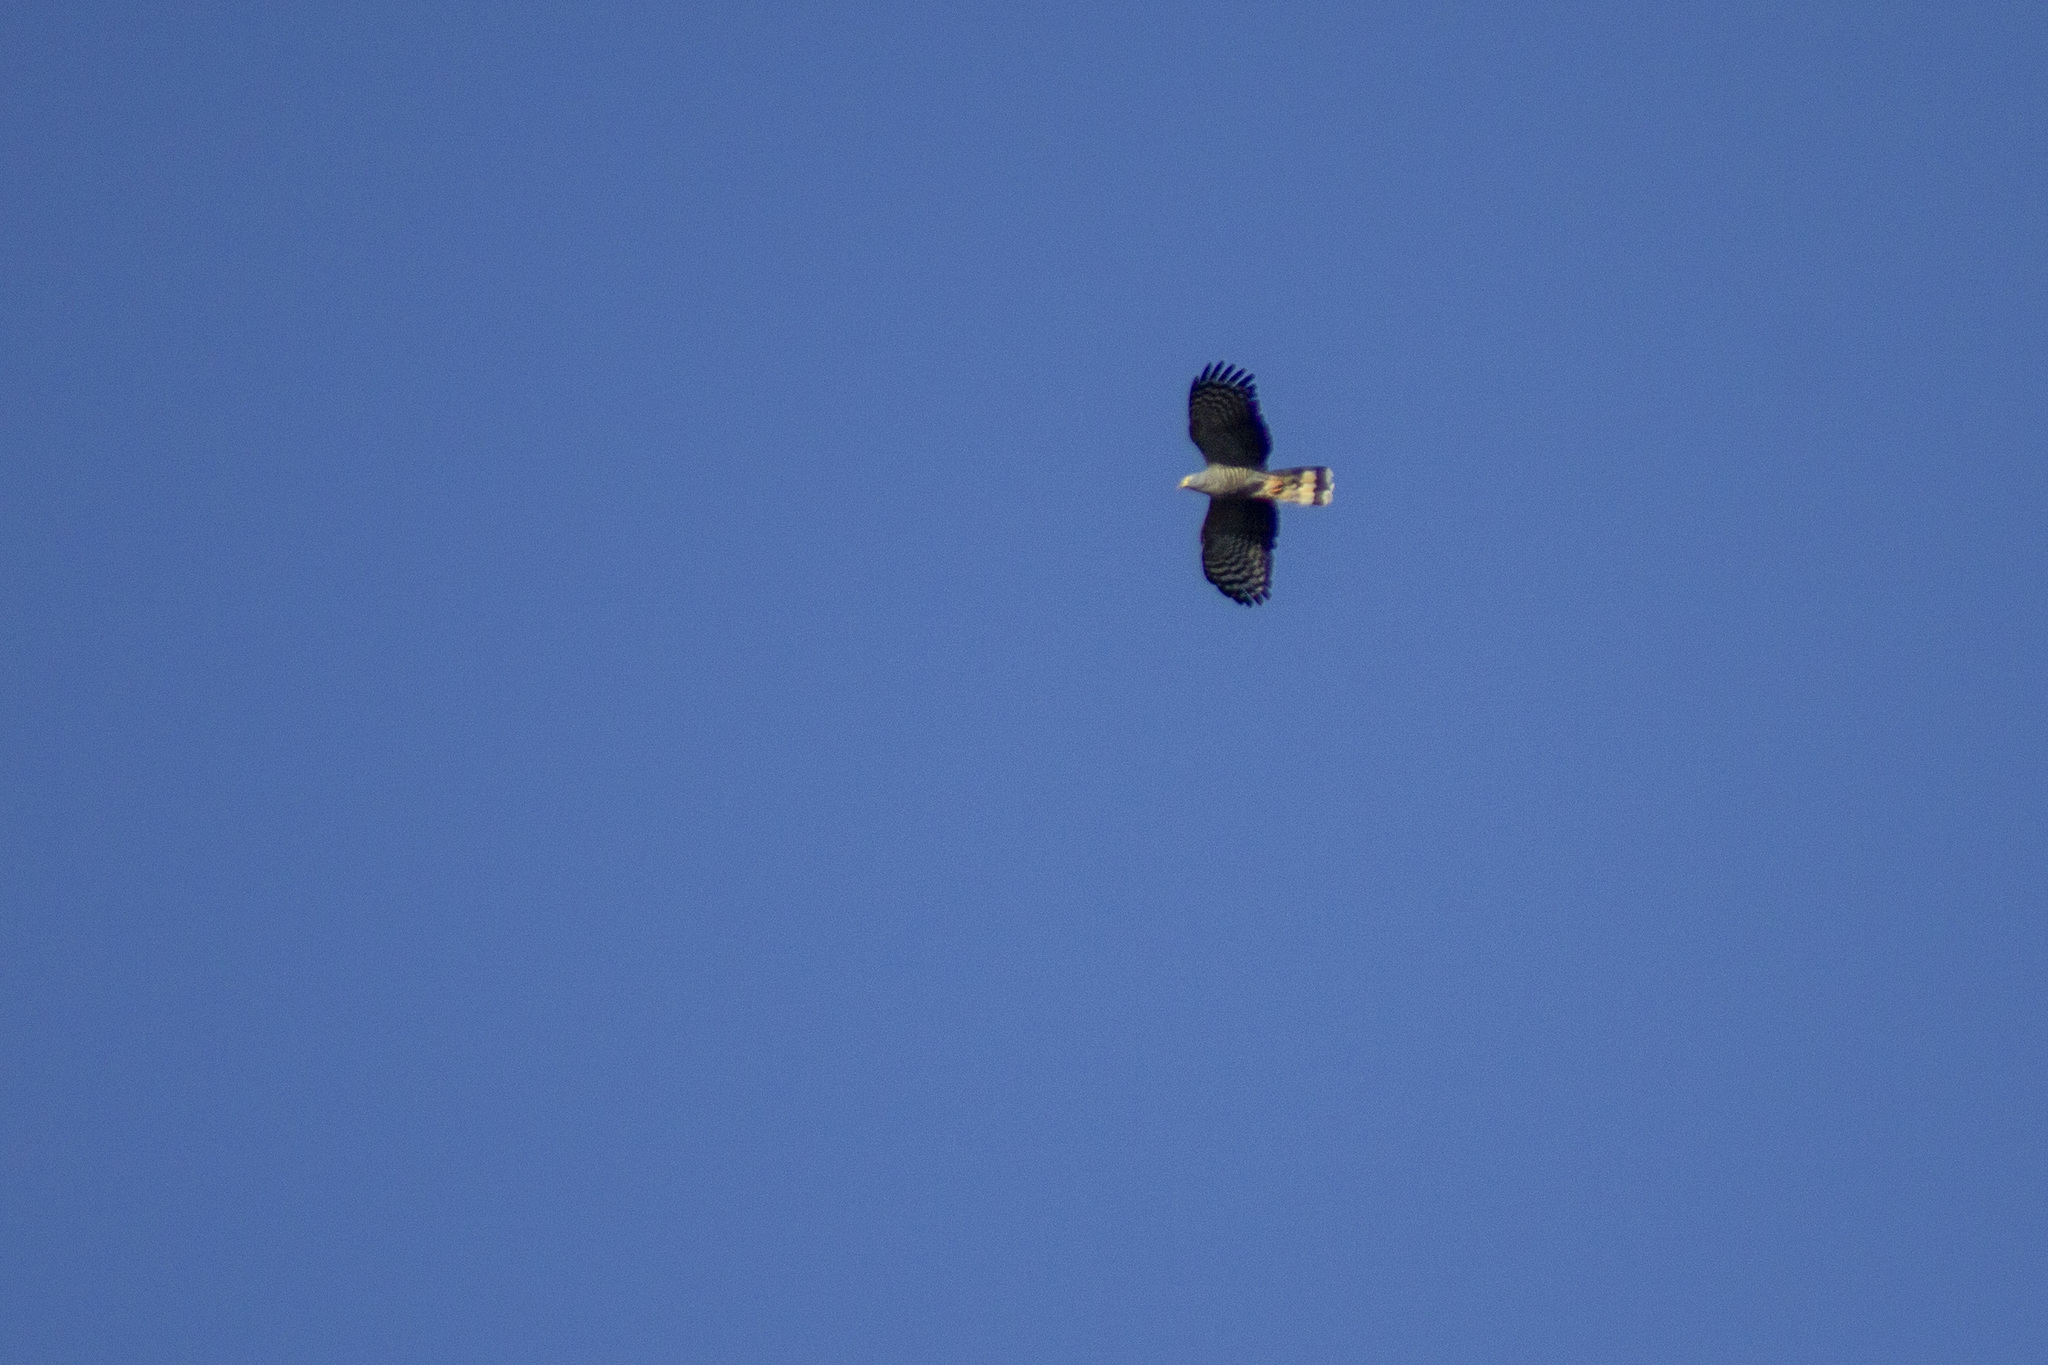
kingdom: Animalia
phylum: Chordata
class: Aves
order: Accipitriformes
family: Accipitridae
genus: Chondrohierax
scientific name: Chondrohierax uncinatus
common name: Hook-billed kite
